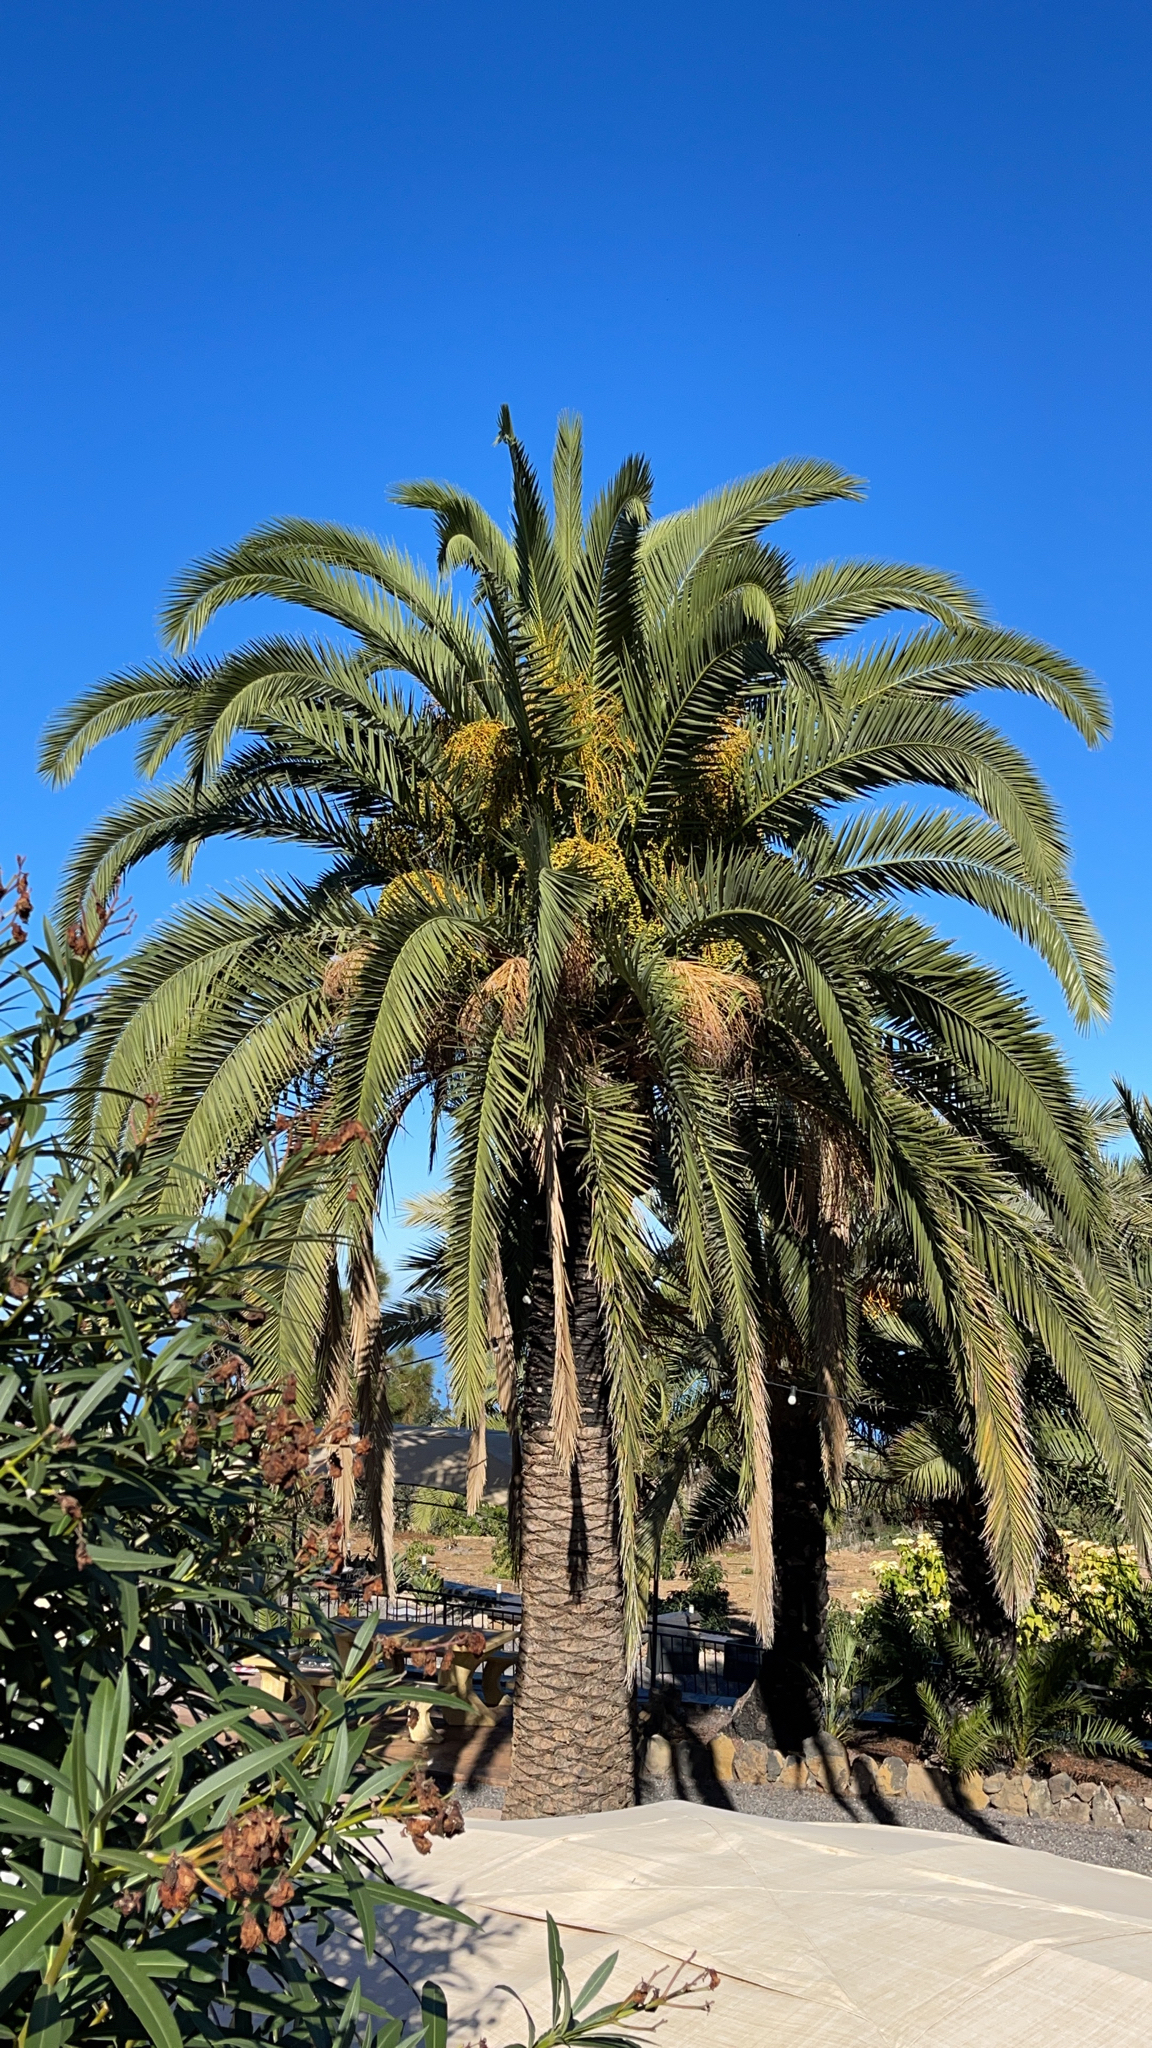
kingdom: Plantae
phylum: Tracheophyta
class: Liliopsida
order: Arecales
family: Arecaceae
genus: Phoenix
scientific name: Phoenix canariensis
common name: Canary island date palm
